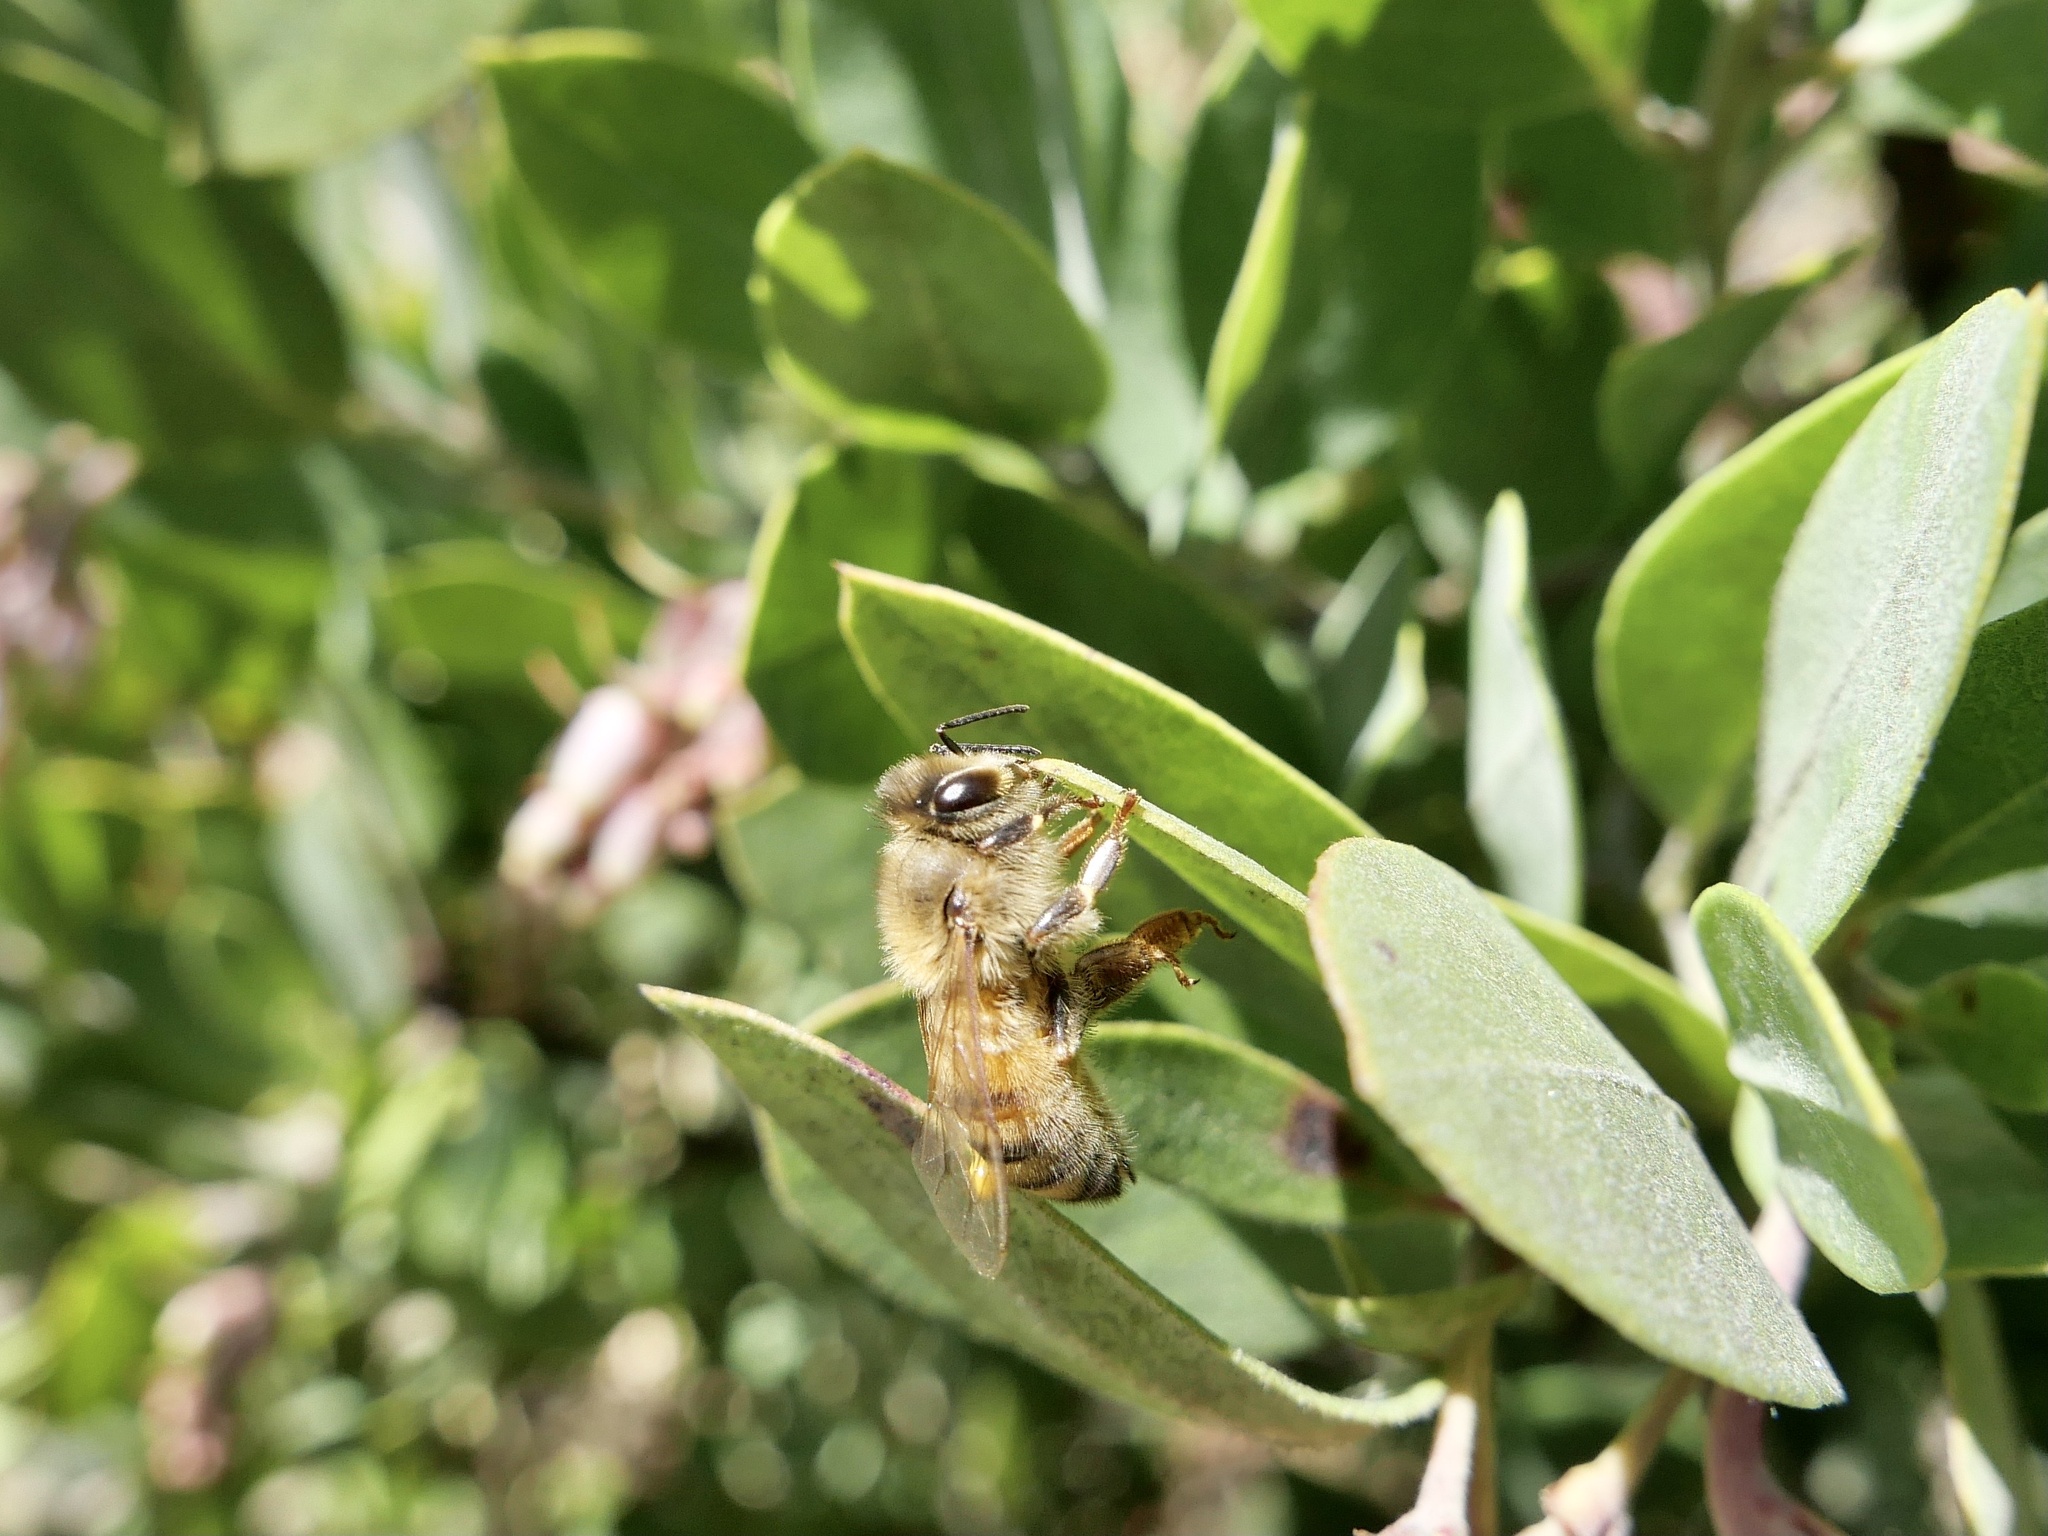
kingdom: Animalia
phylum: Arthropoda
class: Insecta
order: Hymenoptera
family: Apidae
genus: Apis
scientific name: Apis mellifera
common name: Honey bee
